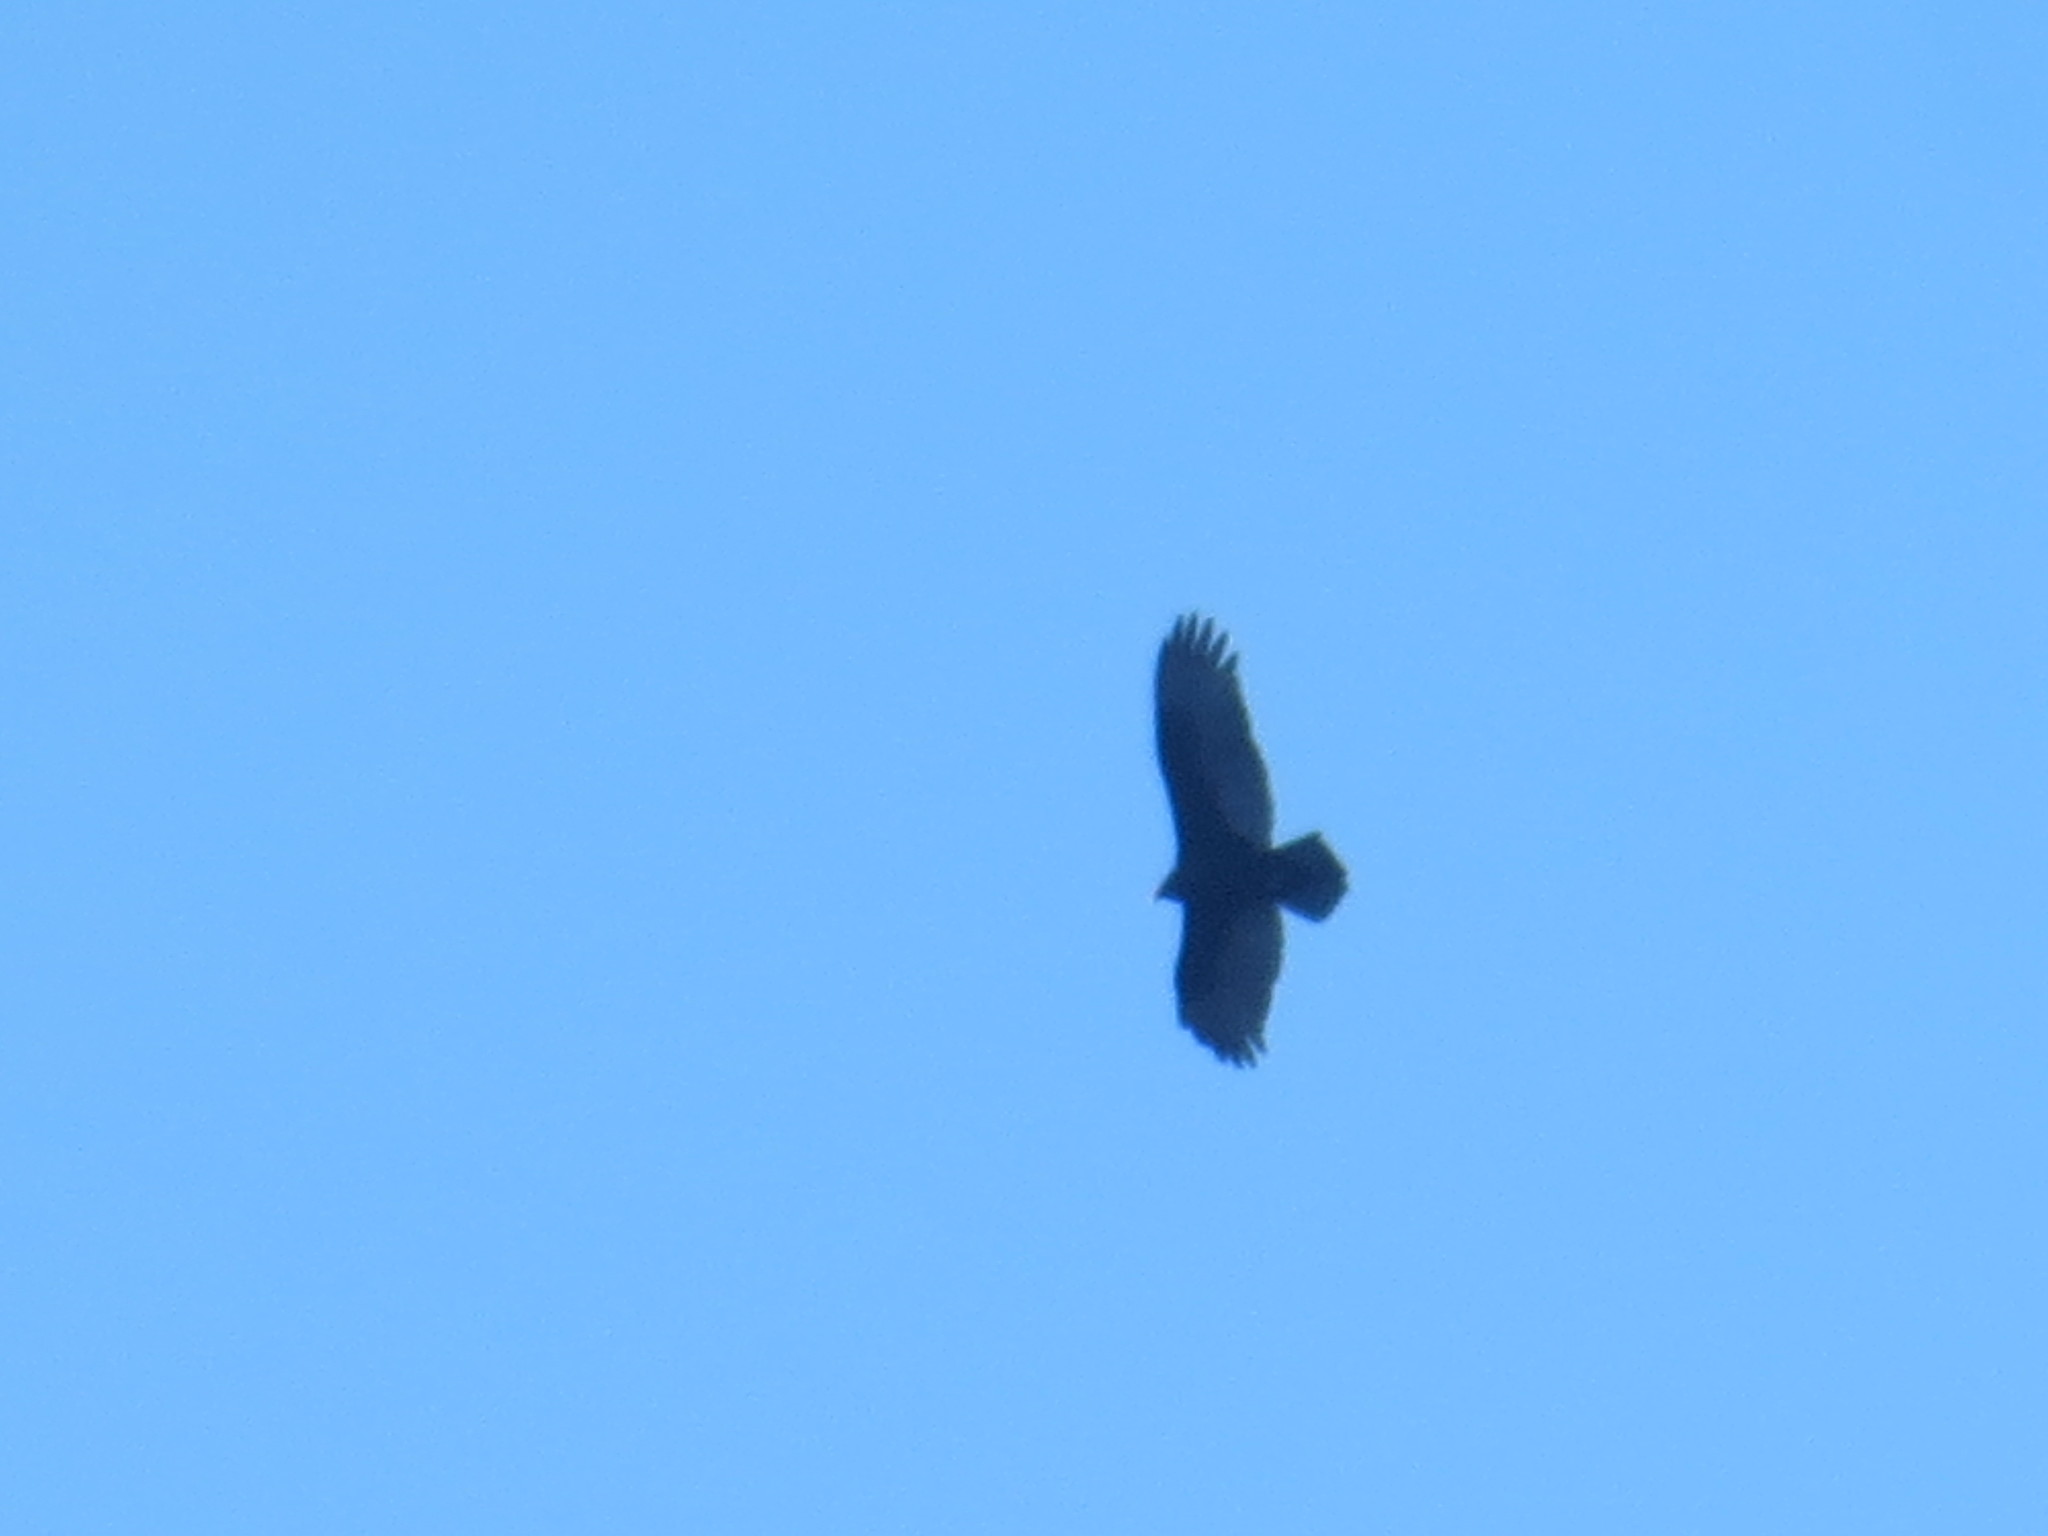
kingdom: Animalia
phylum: Chordata
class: Aves
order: Accipitriformes
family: Cathartidae
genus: Cathartes
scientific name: Cathartes aura
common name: Turkey vulture
